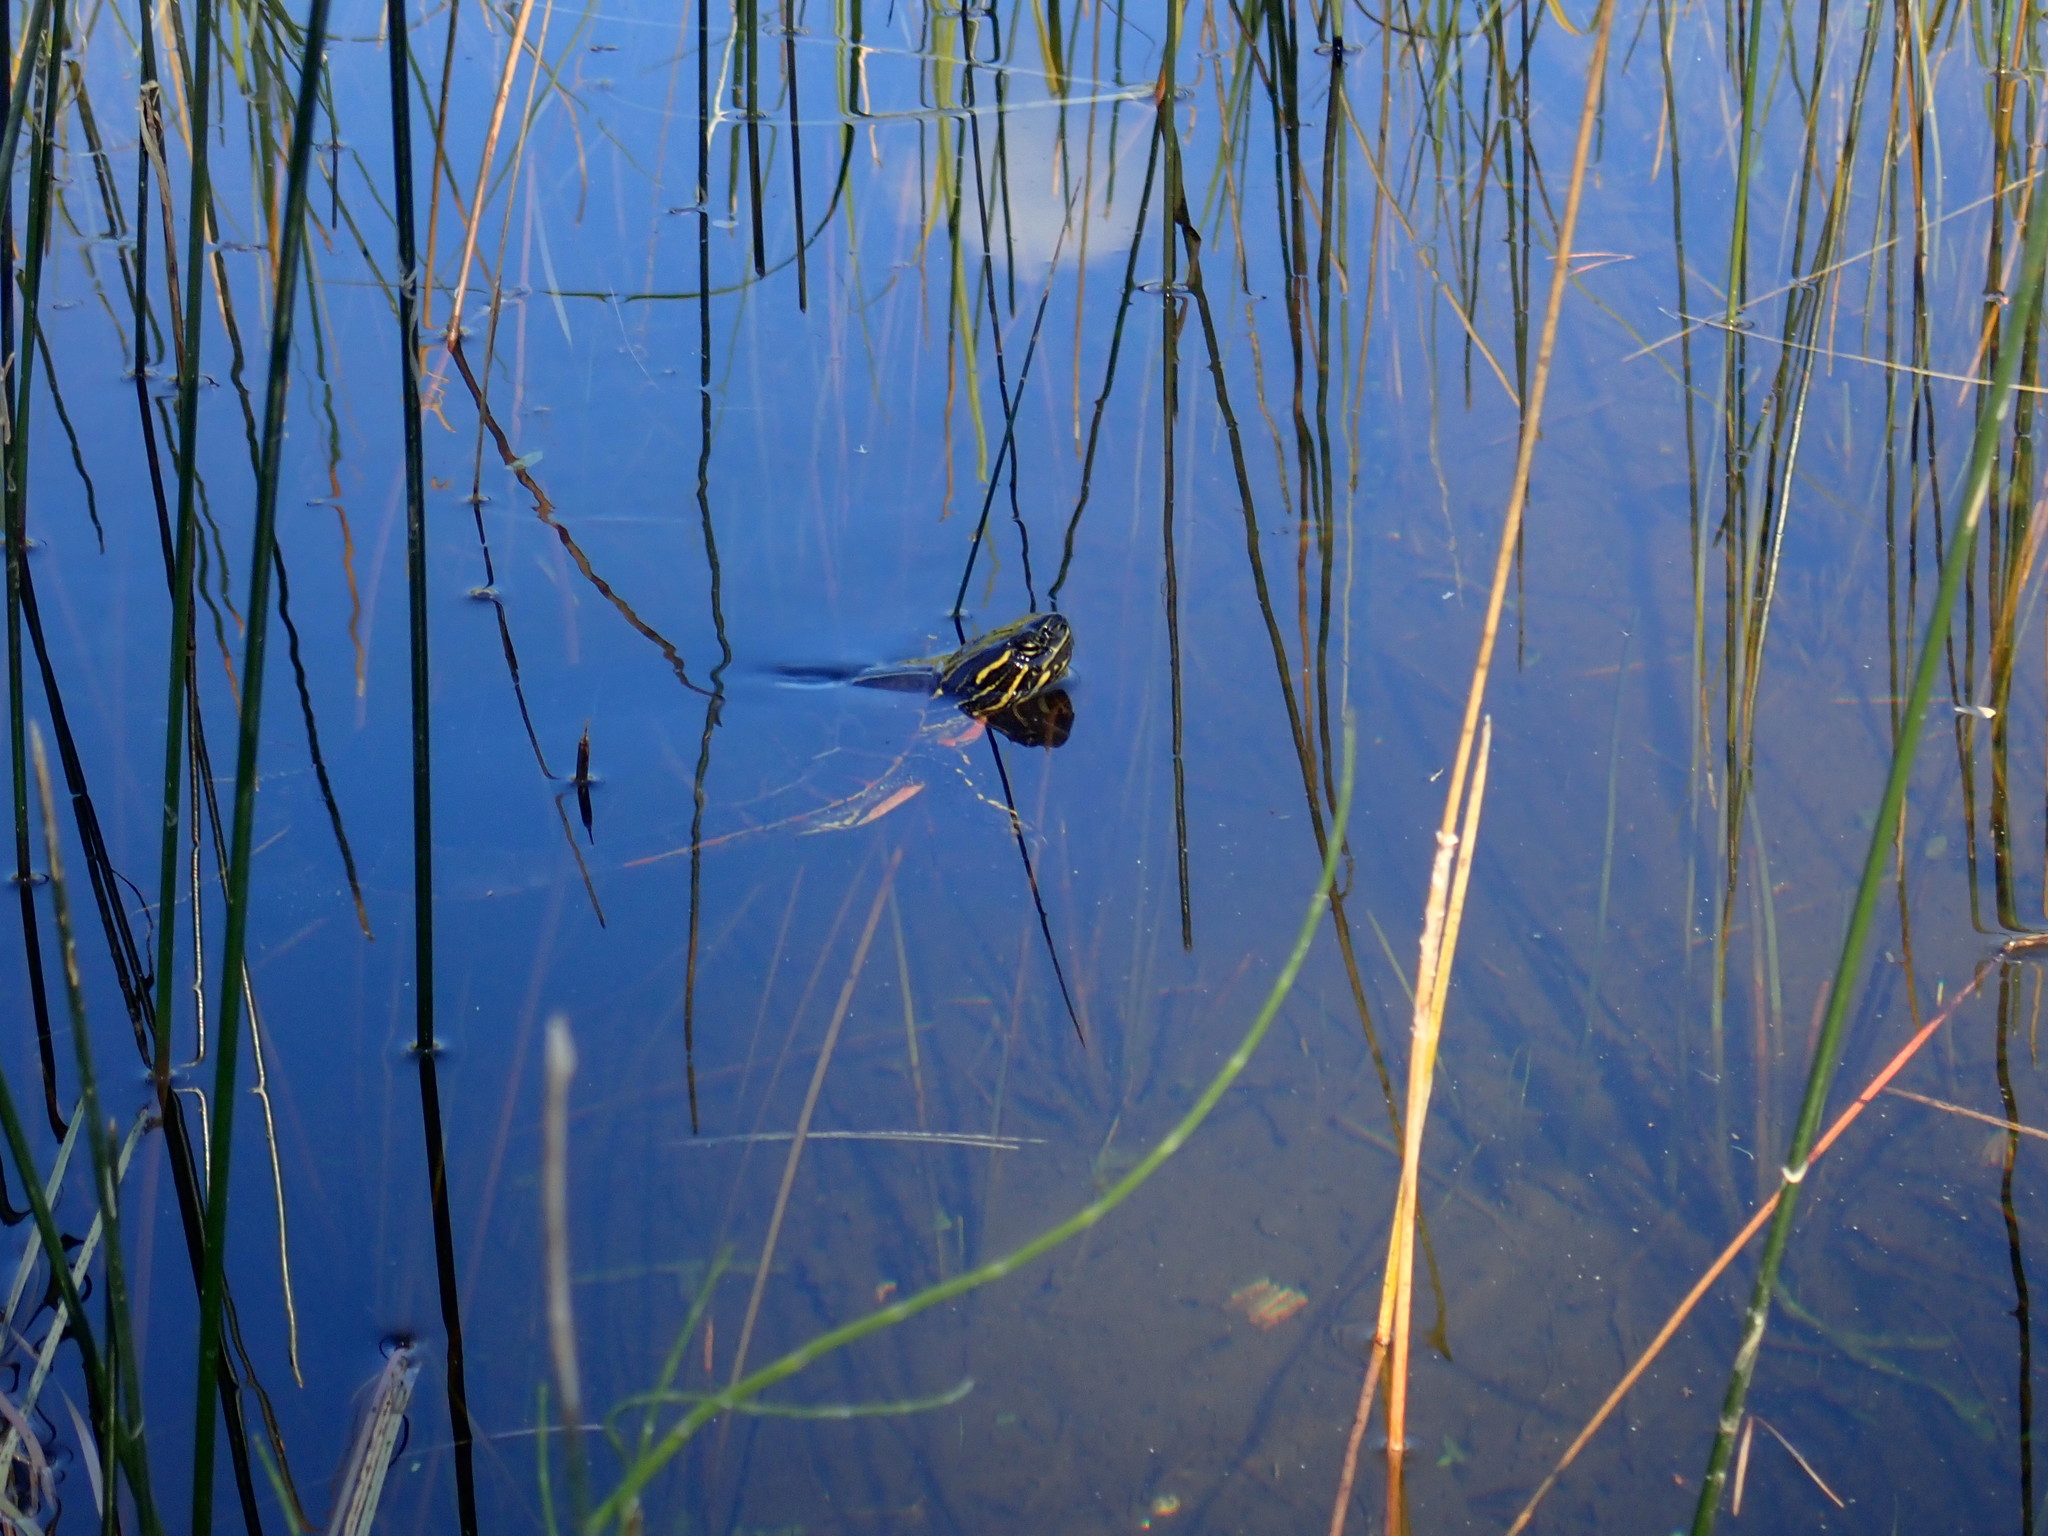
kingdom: Animalia
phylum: Chordata
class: Testudines
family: Emydidae
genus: Chrysemys
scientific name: Chrysemys picta
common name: Painted turtle
